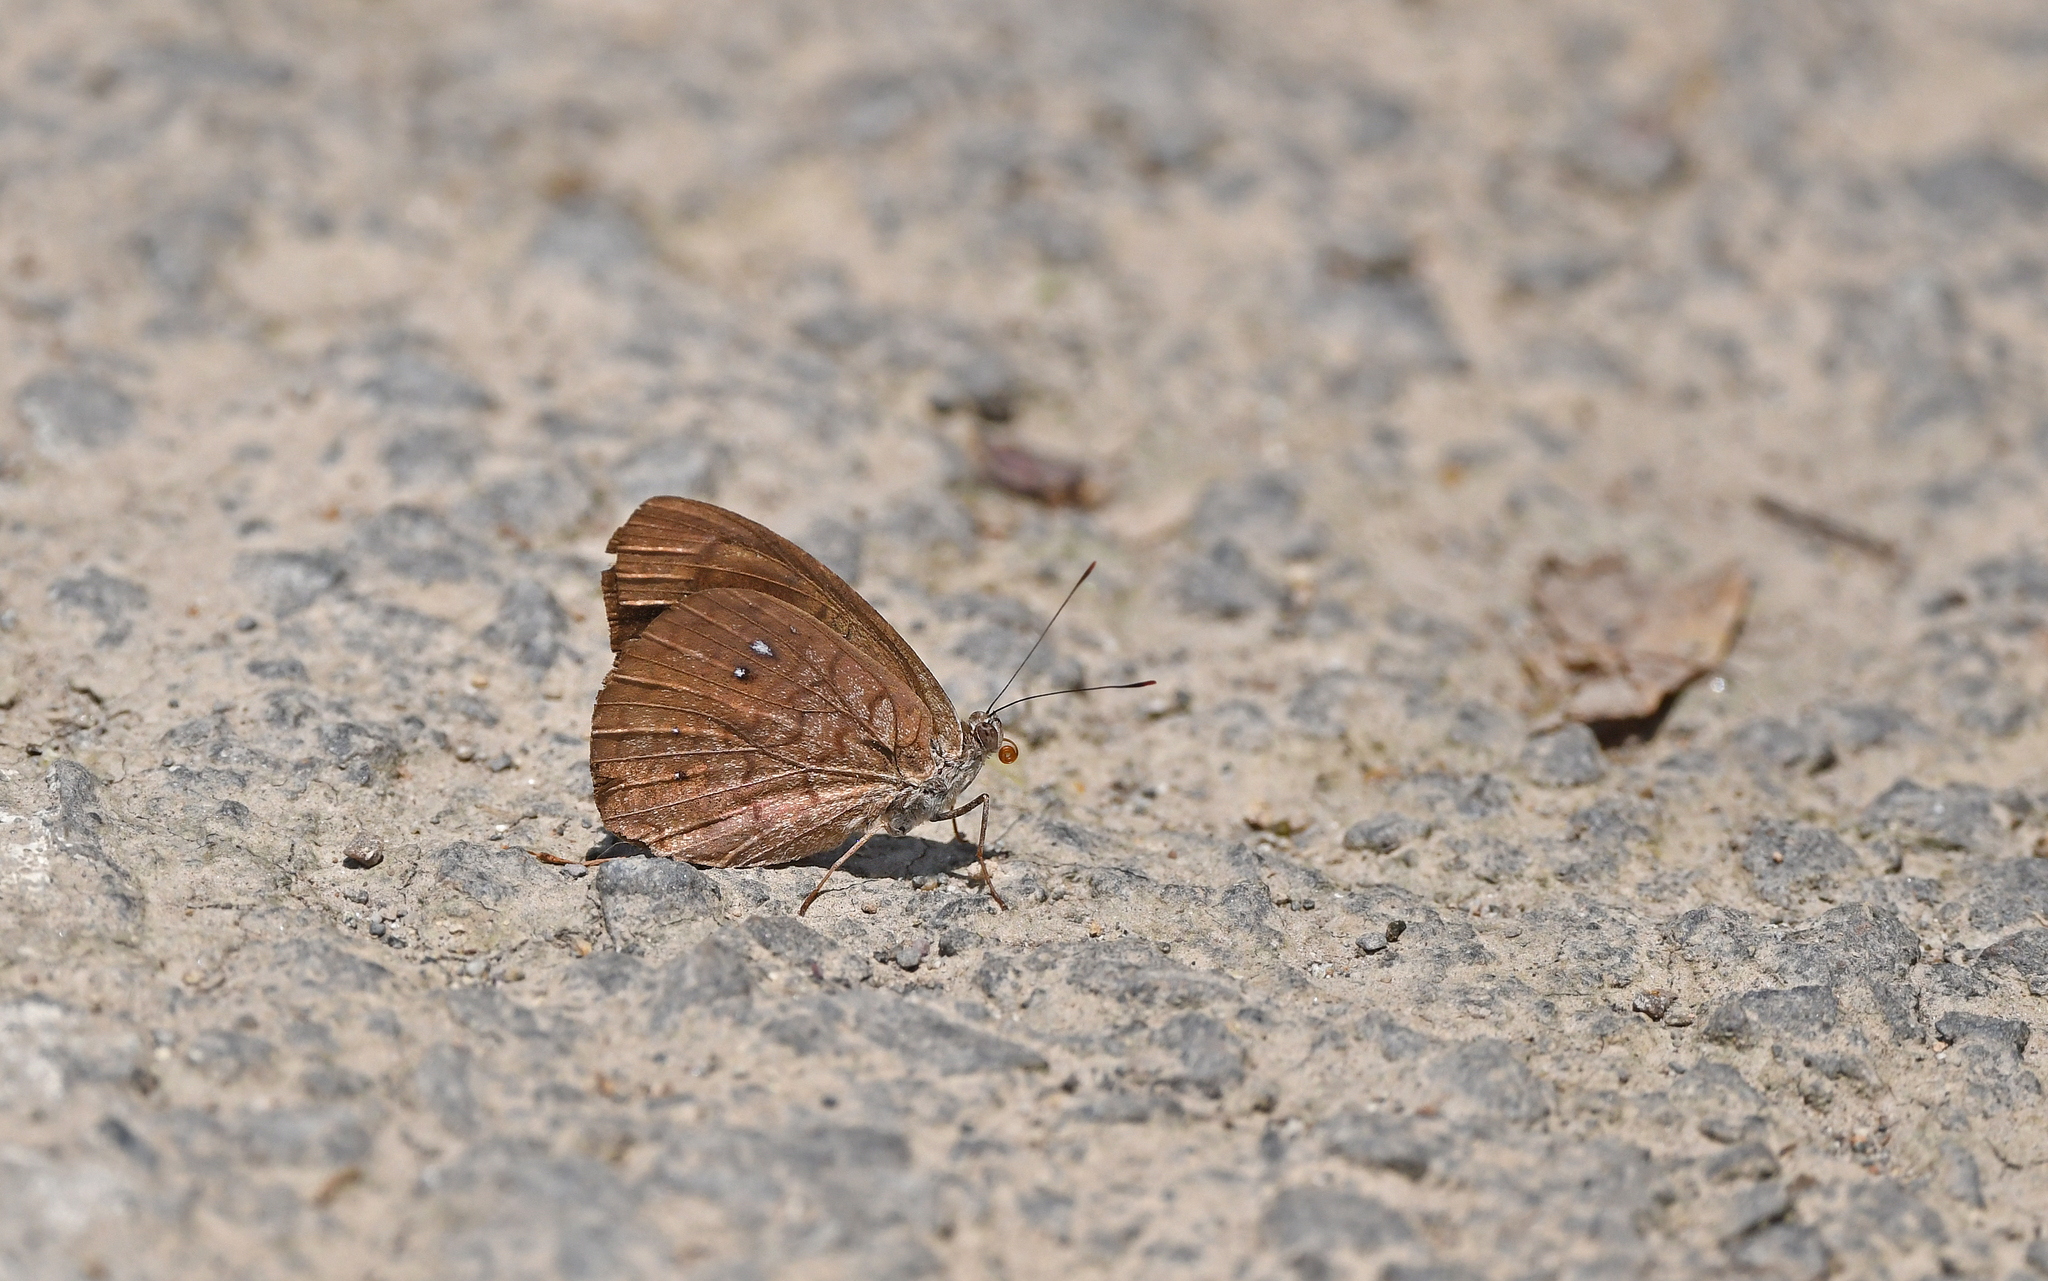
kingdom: Animalia
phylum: Arthropoda
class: Insecta
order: Lepidoptera
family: Nymphalidae
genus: Eunica
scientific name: Eunica clythia
